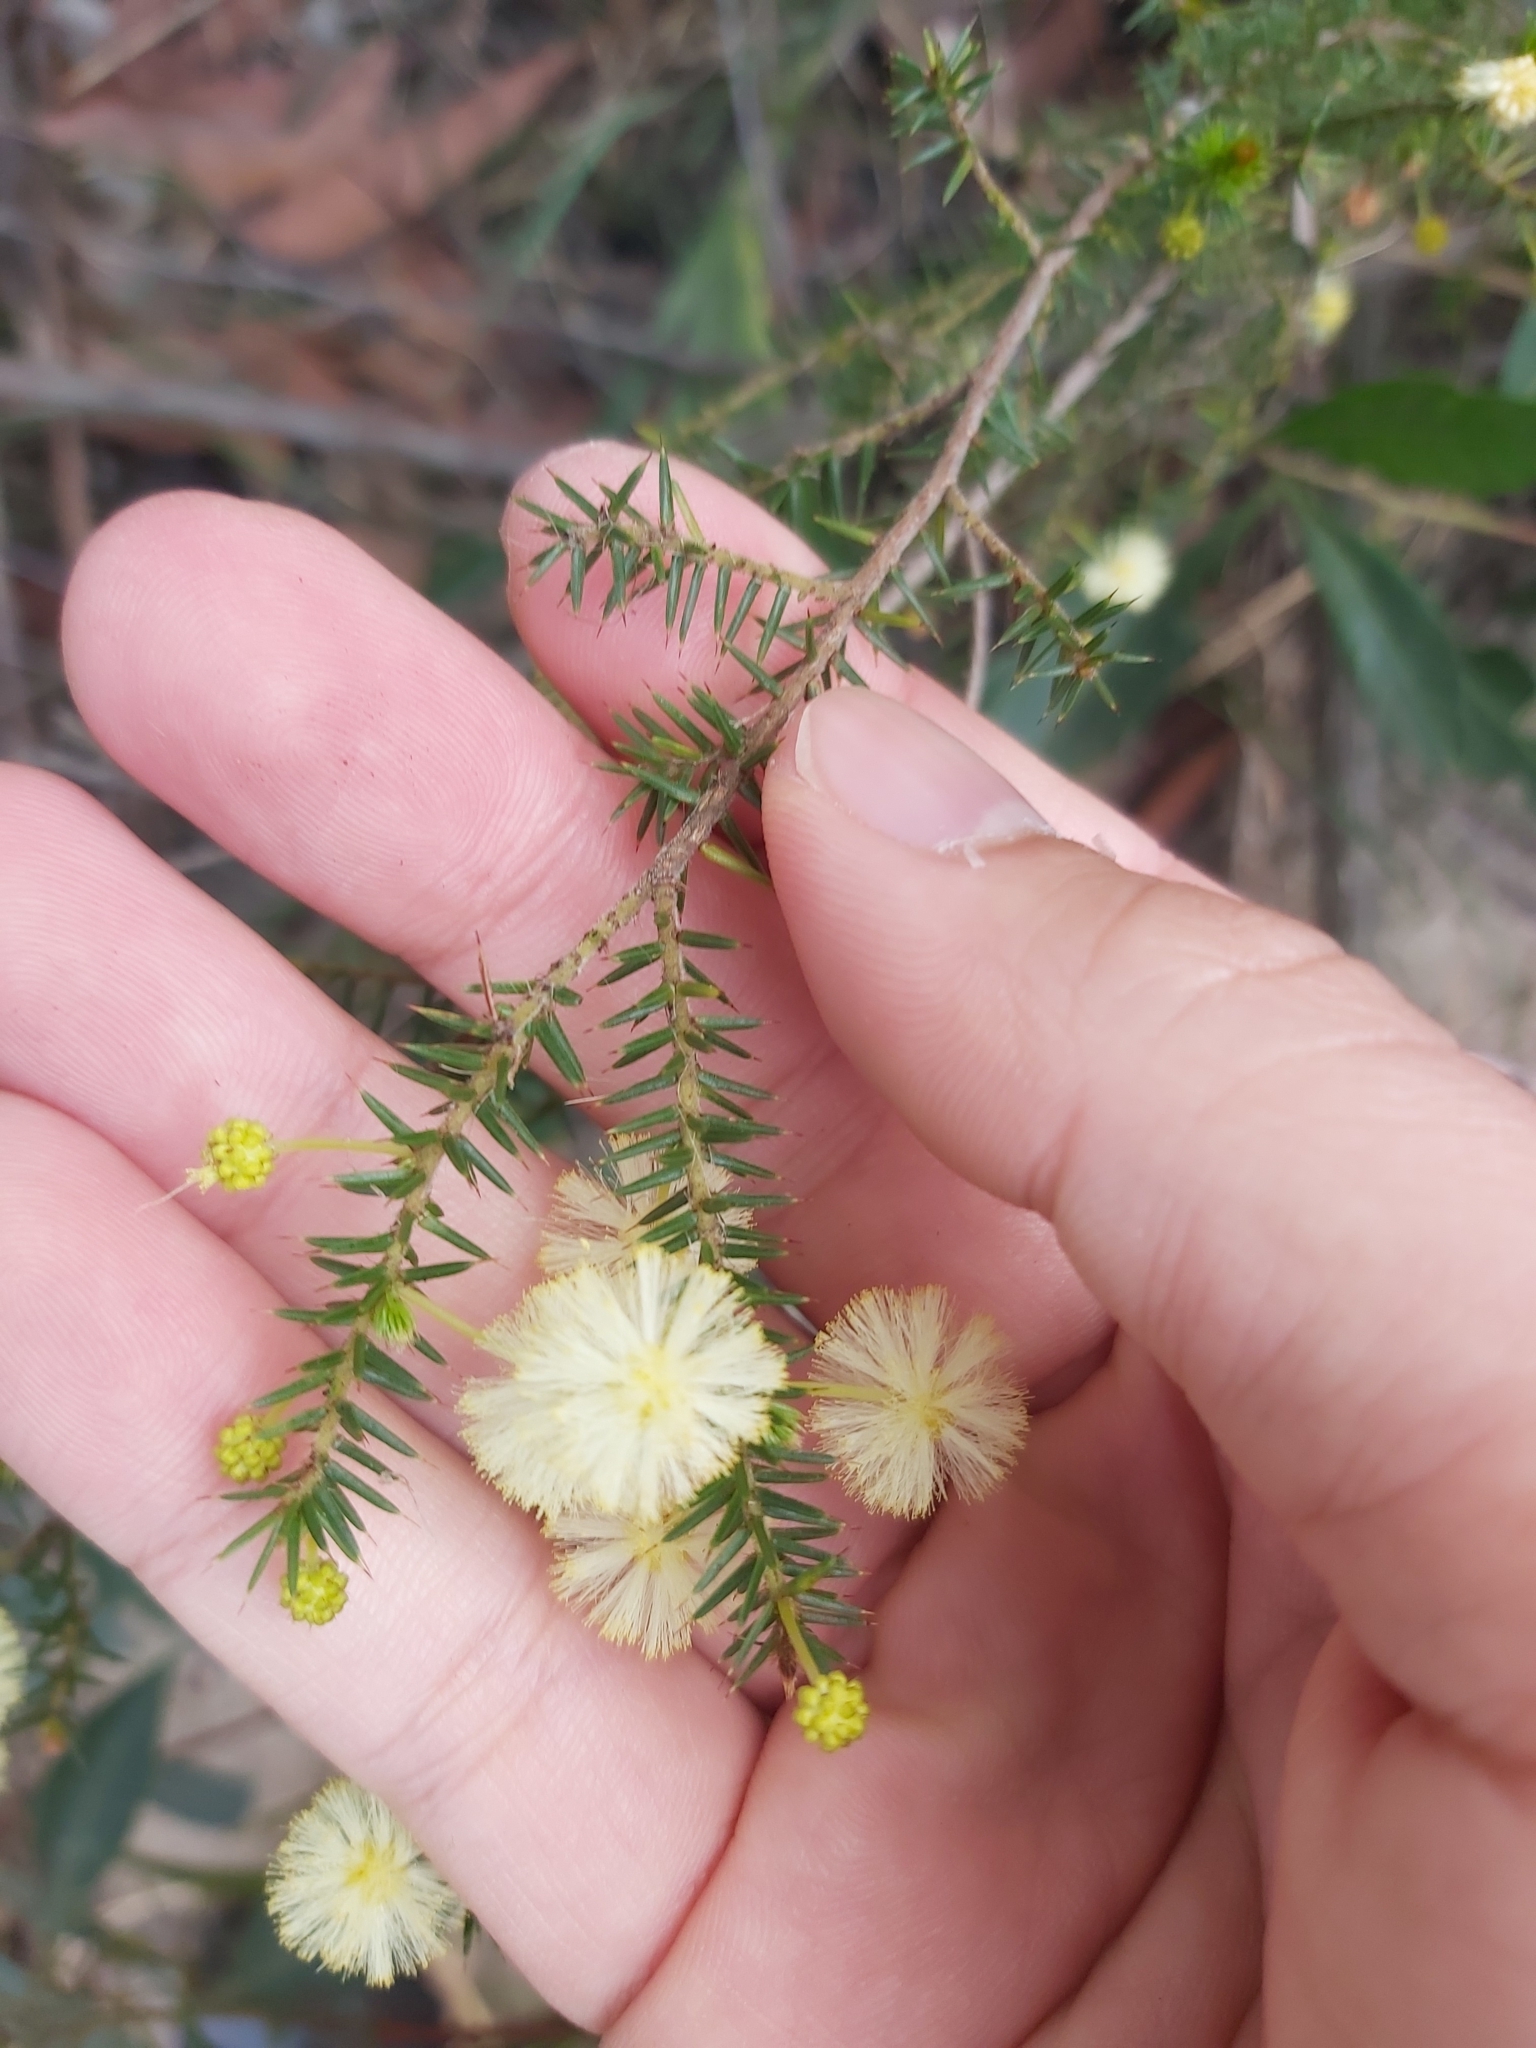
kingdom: Plantae
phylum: Tracheophyta
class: Magnoliopsida
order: Fabales
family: Fabaceae
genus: Acacia
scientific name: Acacia ulicifolia
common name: Juniper wattle
